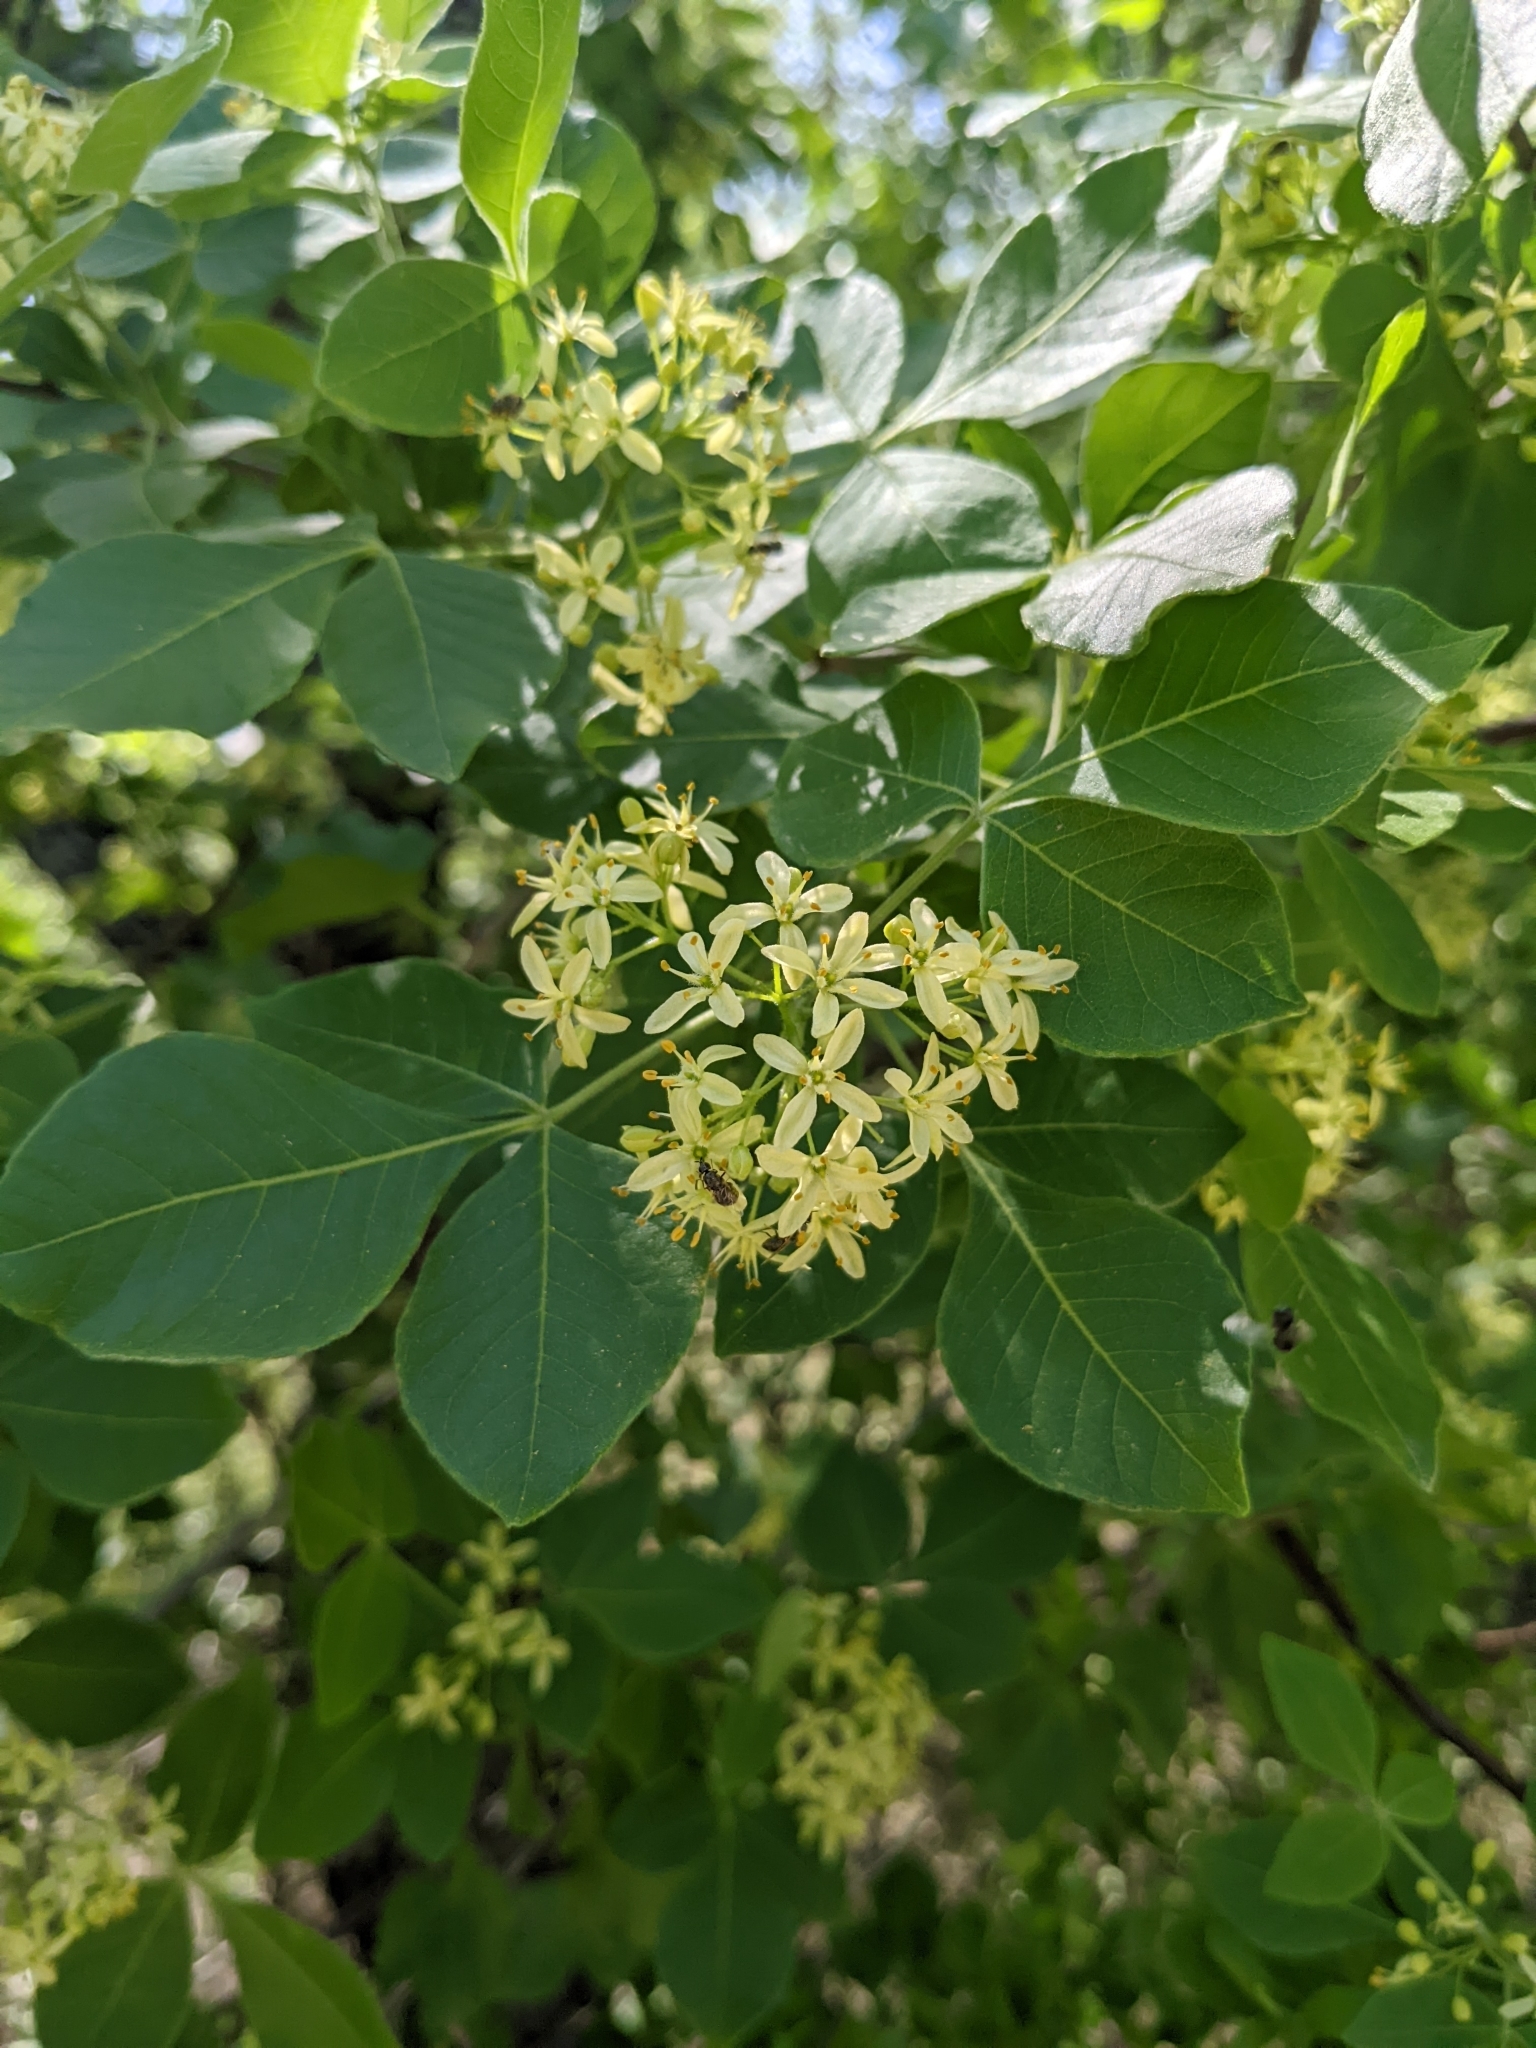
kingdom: Plantae
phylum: Tracheophyta
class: Magnoliopsida
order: Sapindales
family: Rutaceae
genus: Ptelea
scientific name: Ptelea trifoliata
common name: Common hop-tree
